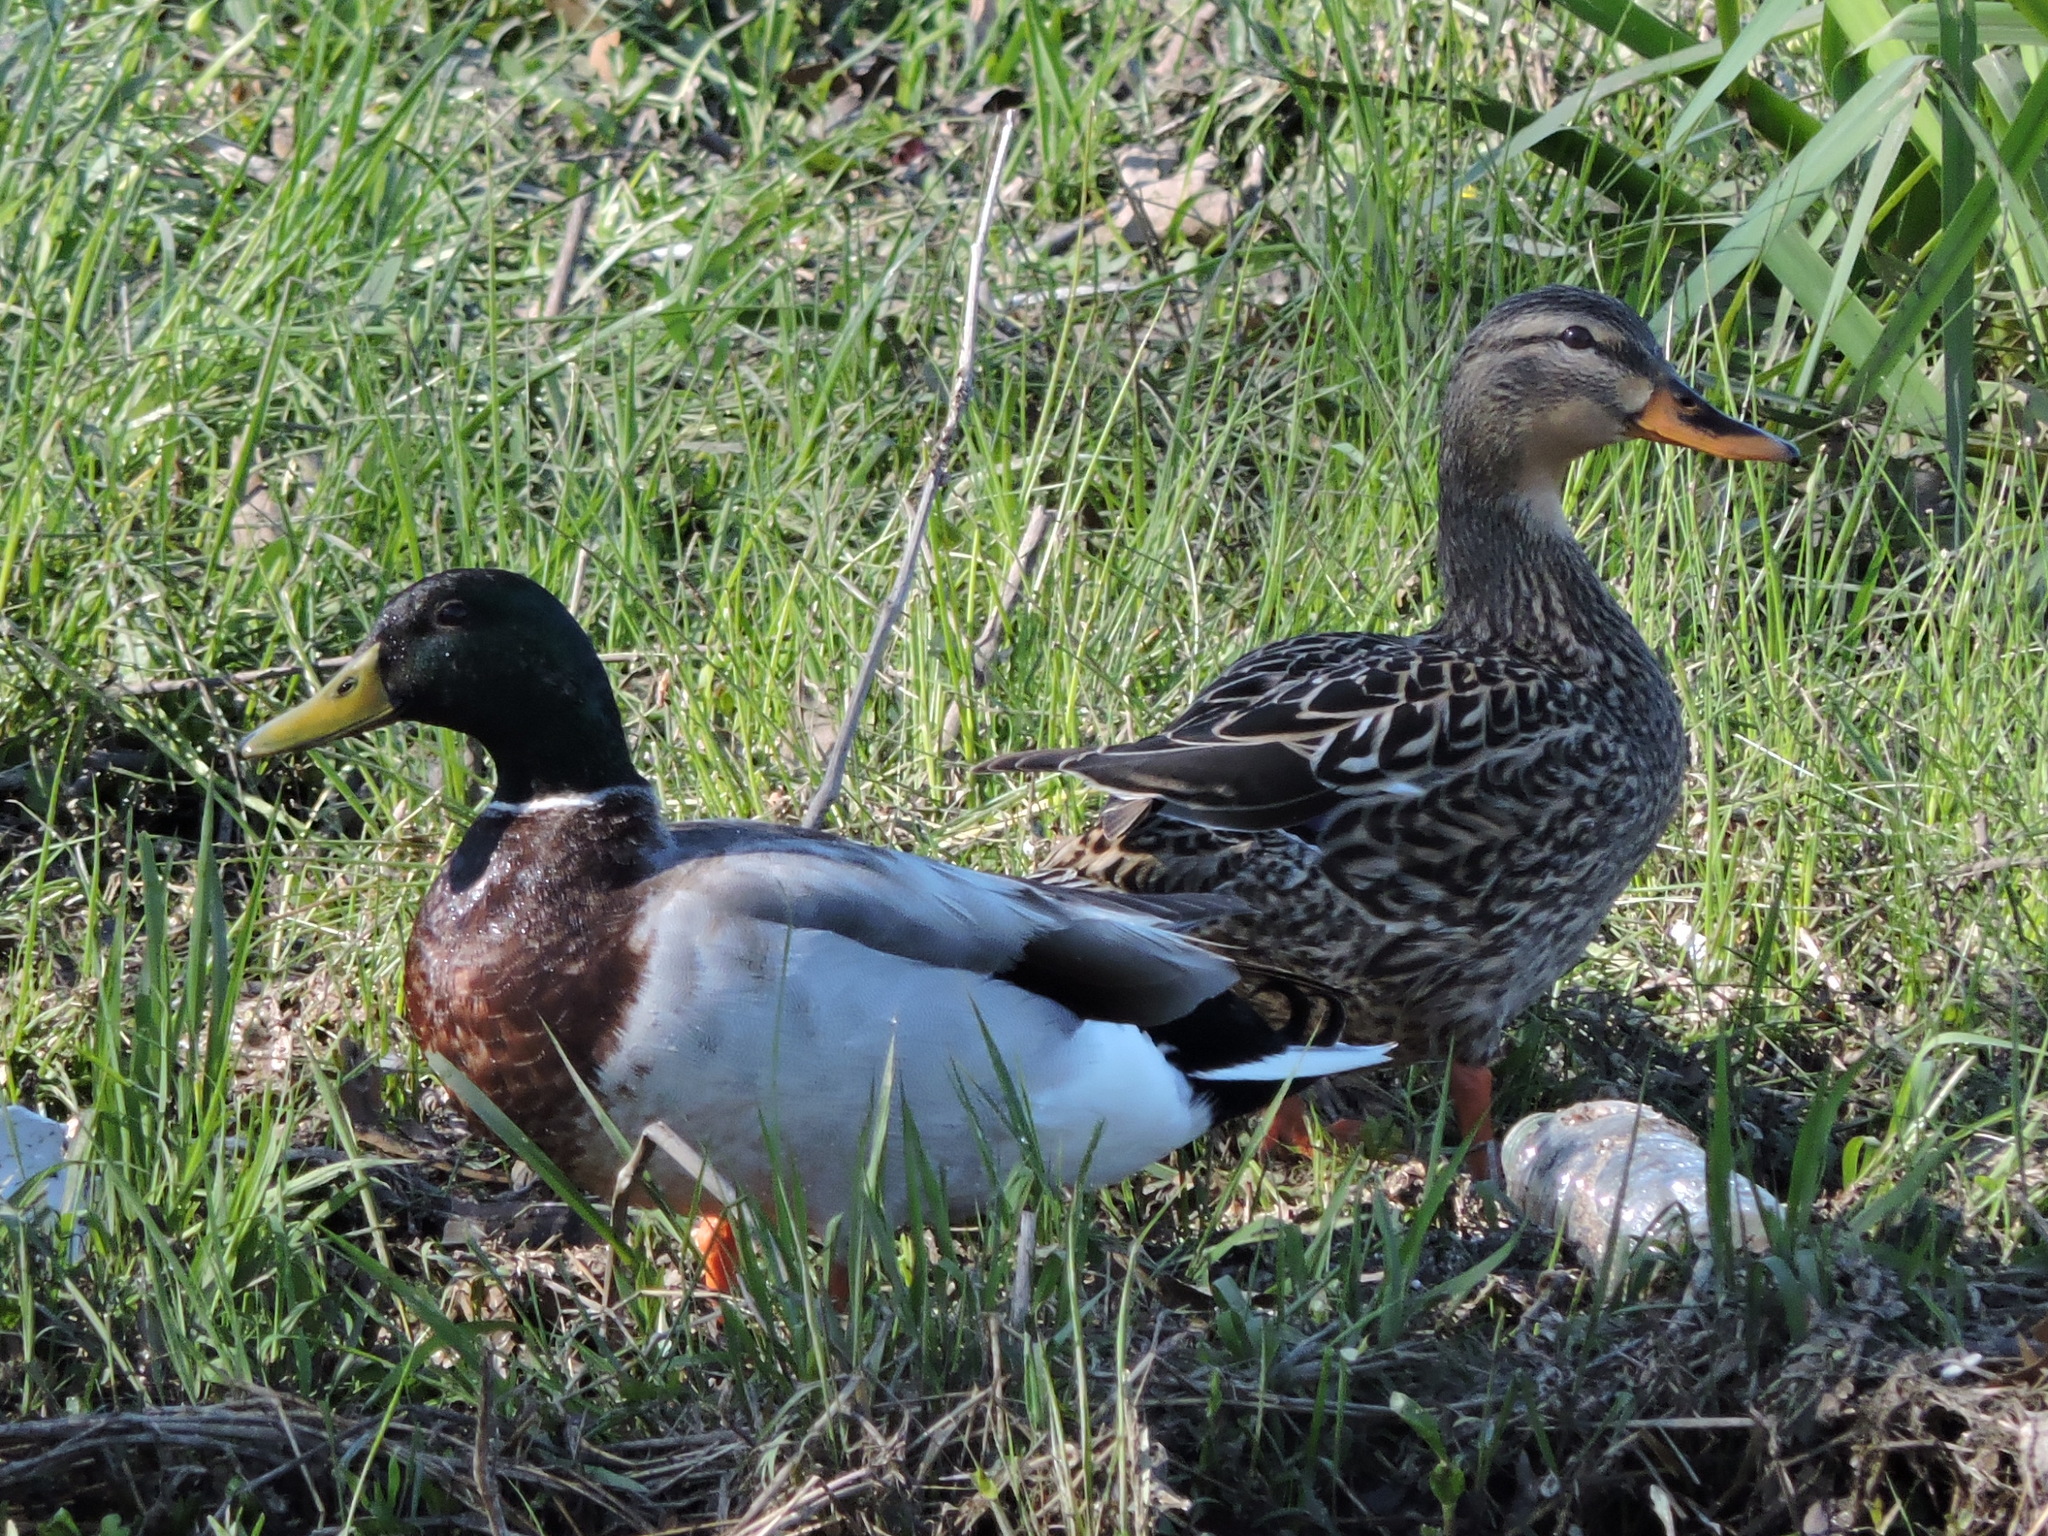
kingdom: Animalia
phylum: Chordata
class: Aves
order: Anseriformes
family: Anatidae
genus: Anas
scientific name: Anas platyrhynchos
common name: Mallard
